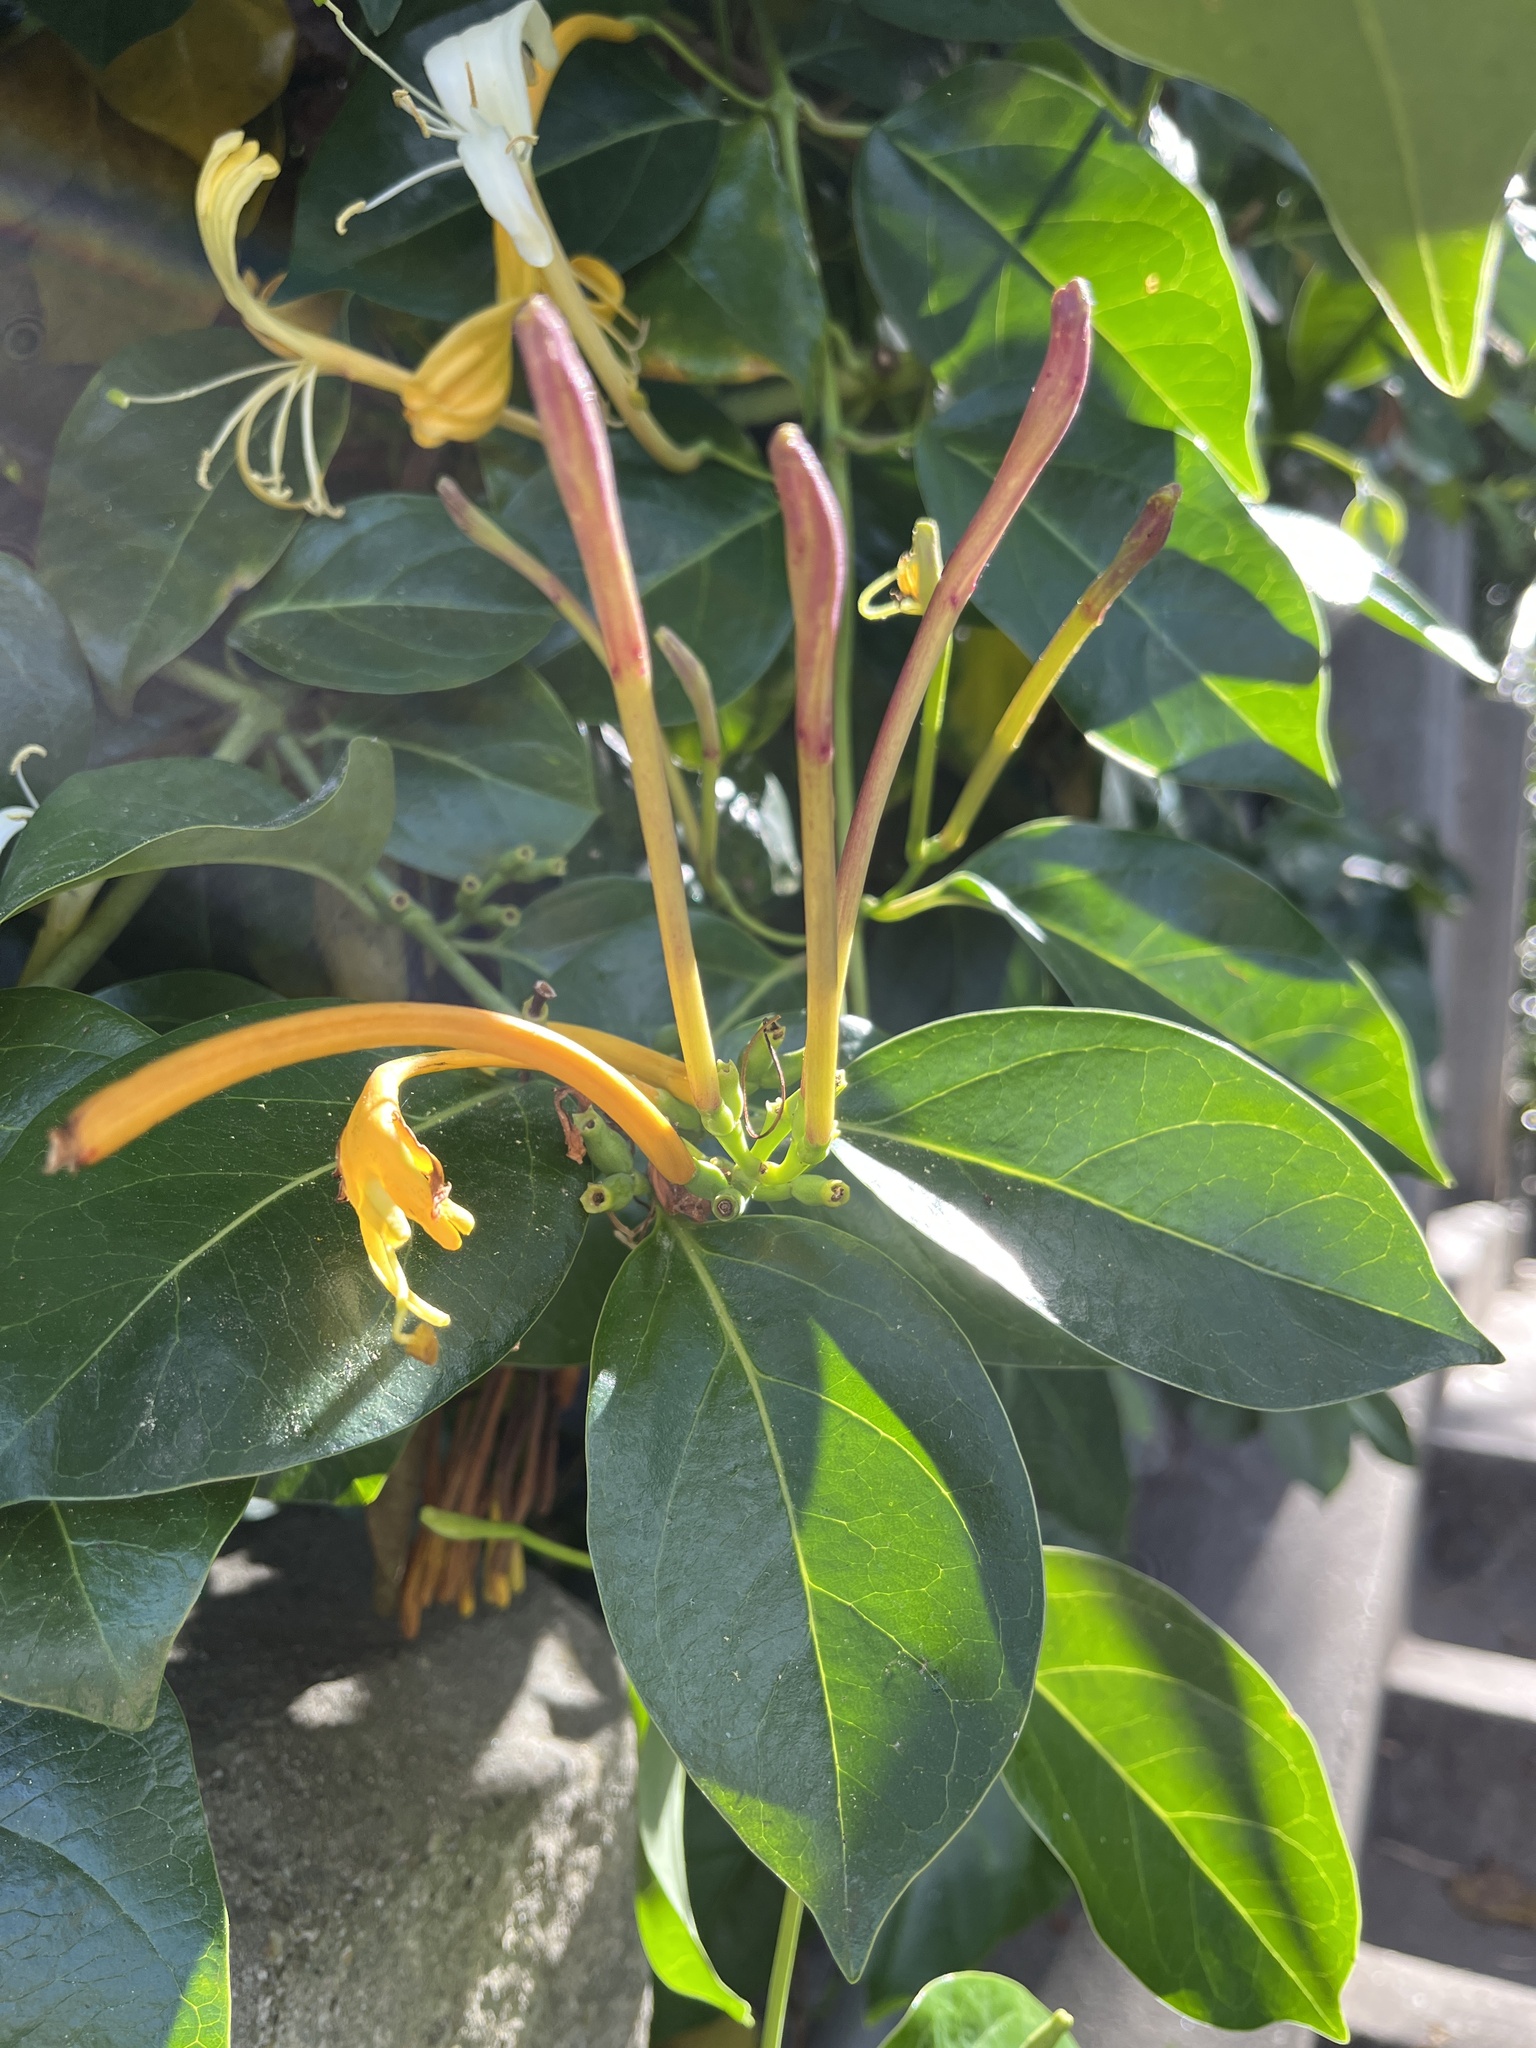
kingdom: Plantae
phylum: Tracheophyta
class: Magnoliopsida
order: Dipsacales
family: Caprifoliaceae
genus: Lonicera
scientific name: Lonicera japonica
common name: Japanese honeysuckle
